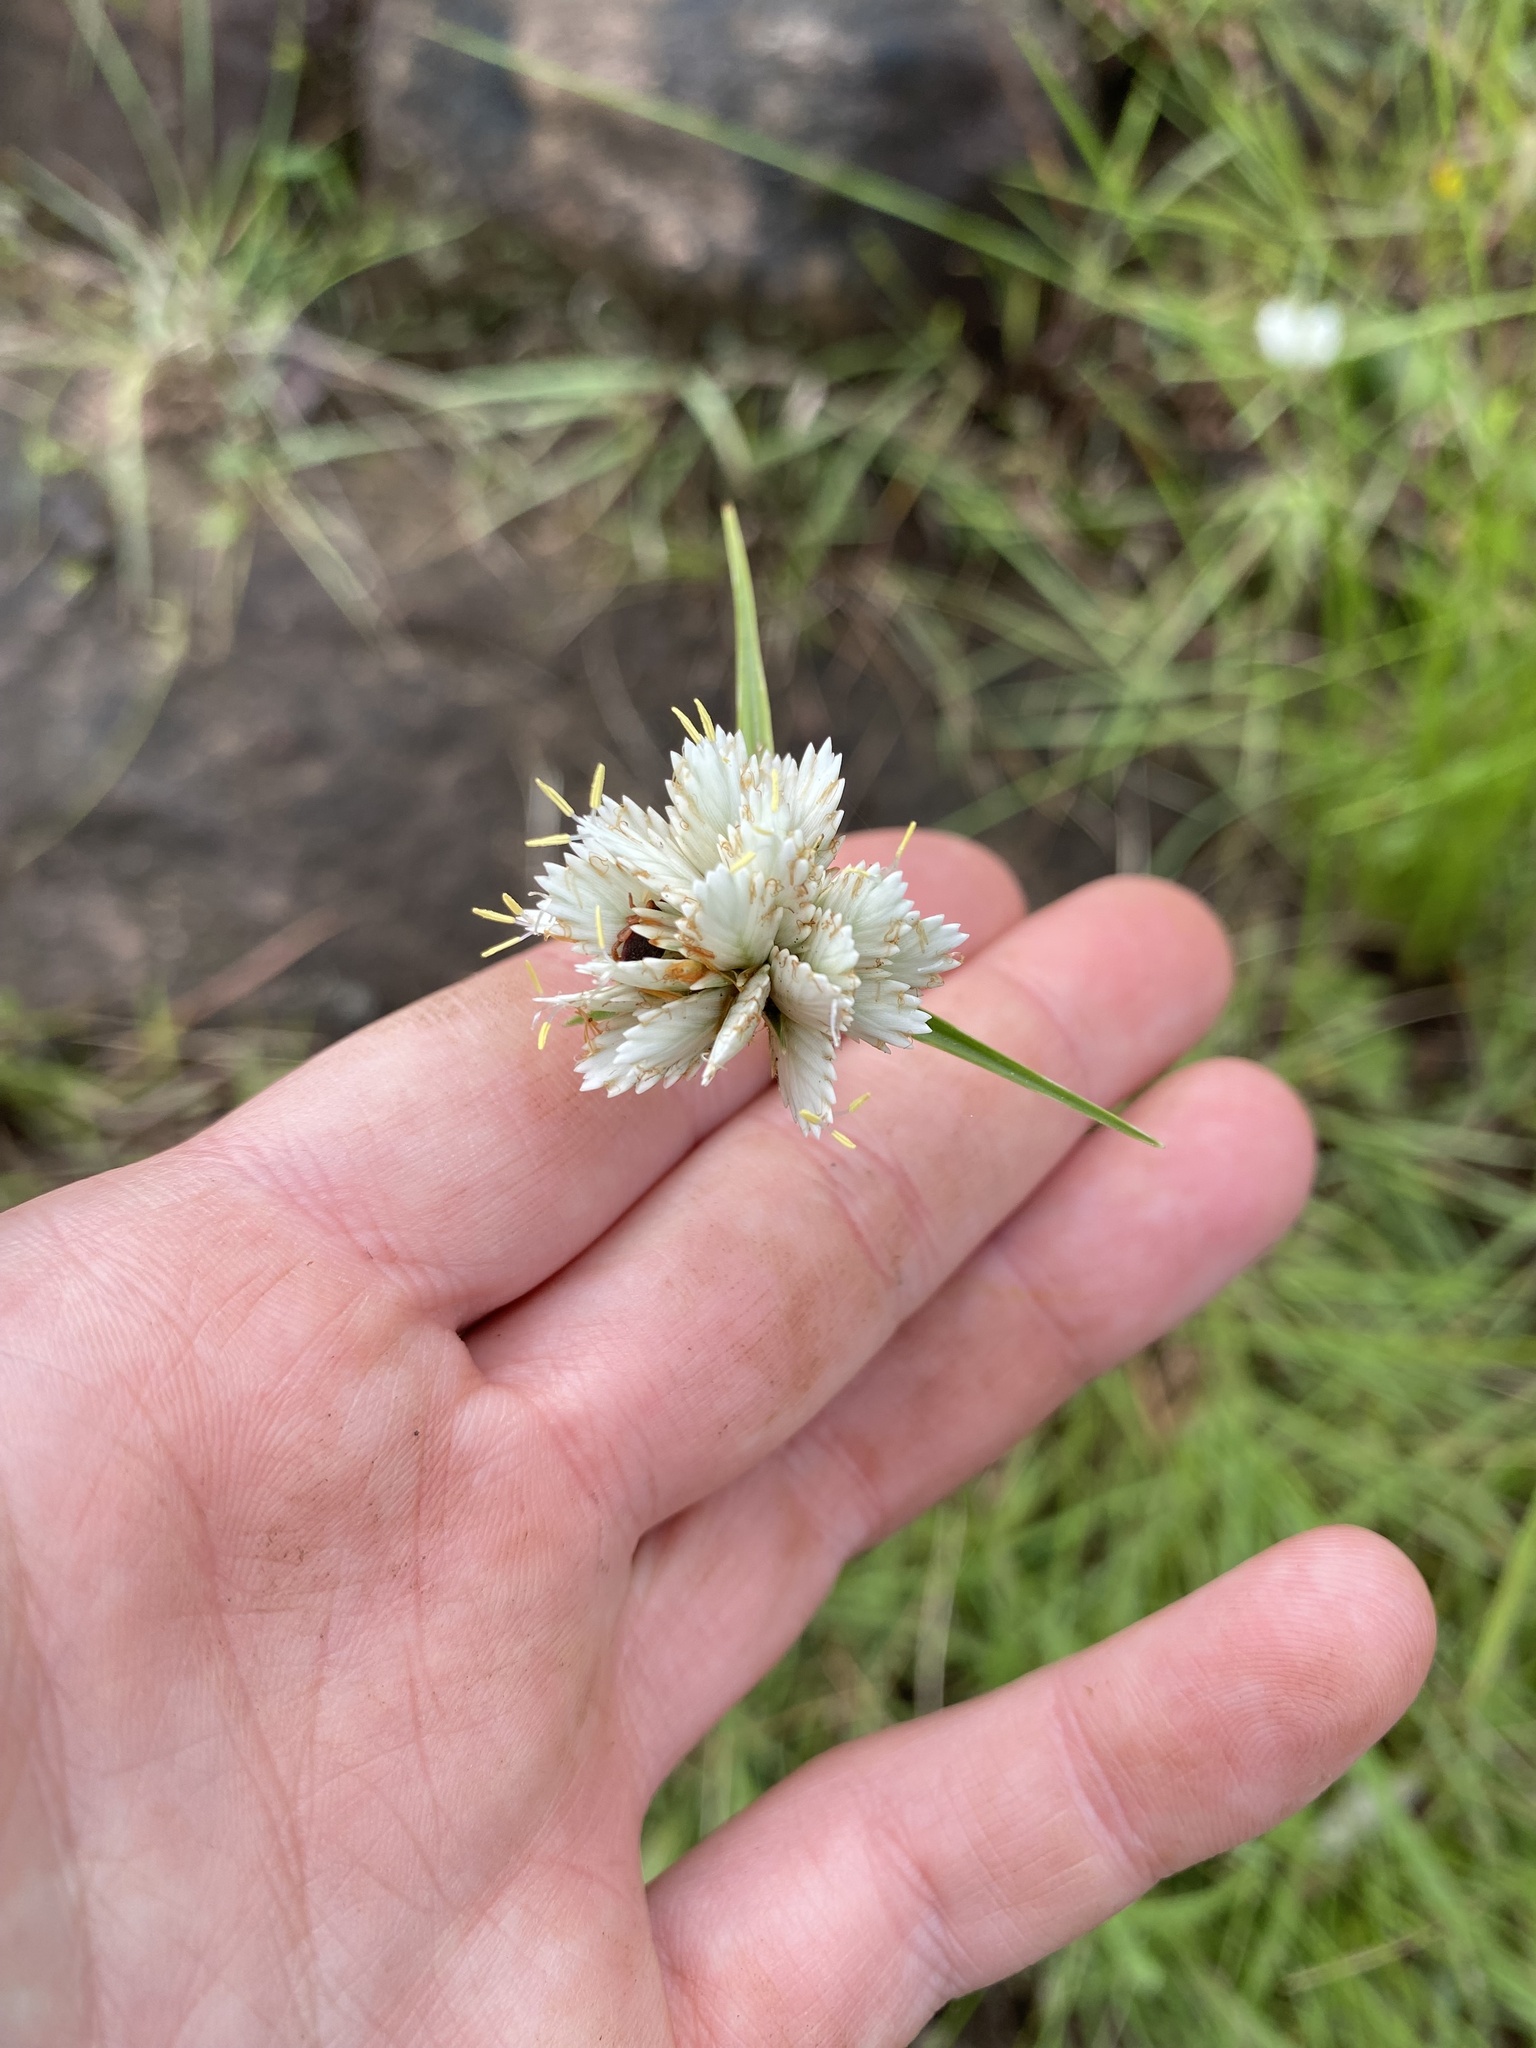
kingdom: Plantae
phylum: Tracheophyta
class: Liliopsida
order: Poales
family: Cyperaceae
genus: Cyperus
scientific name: Cyperus niveus
